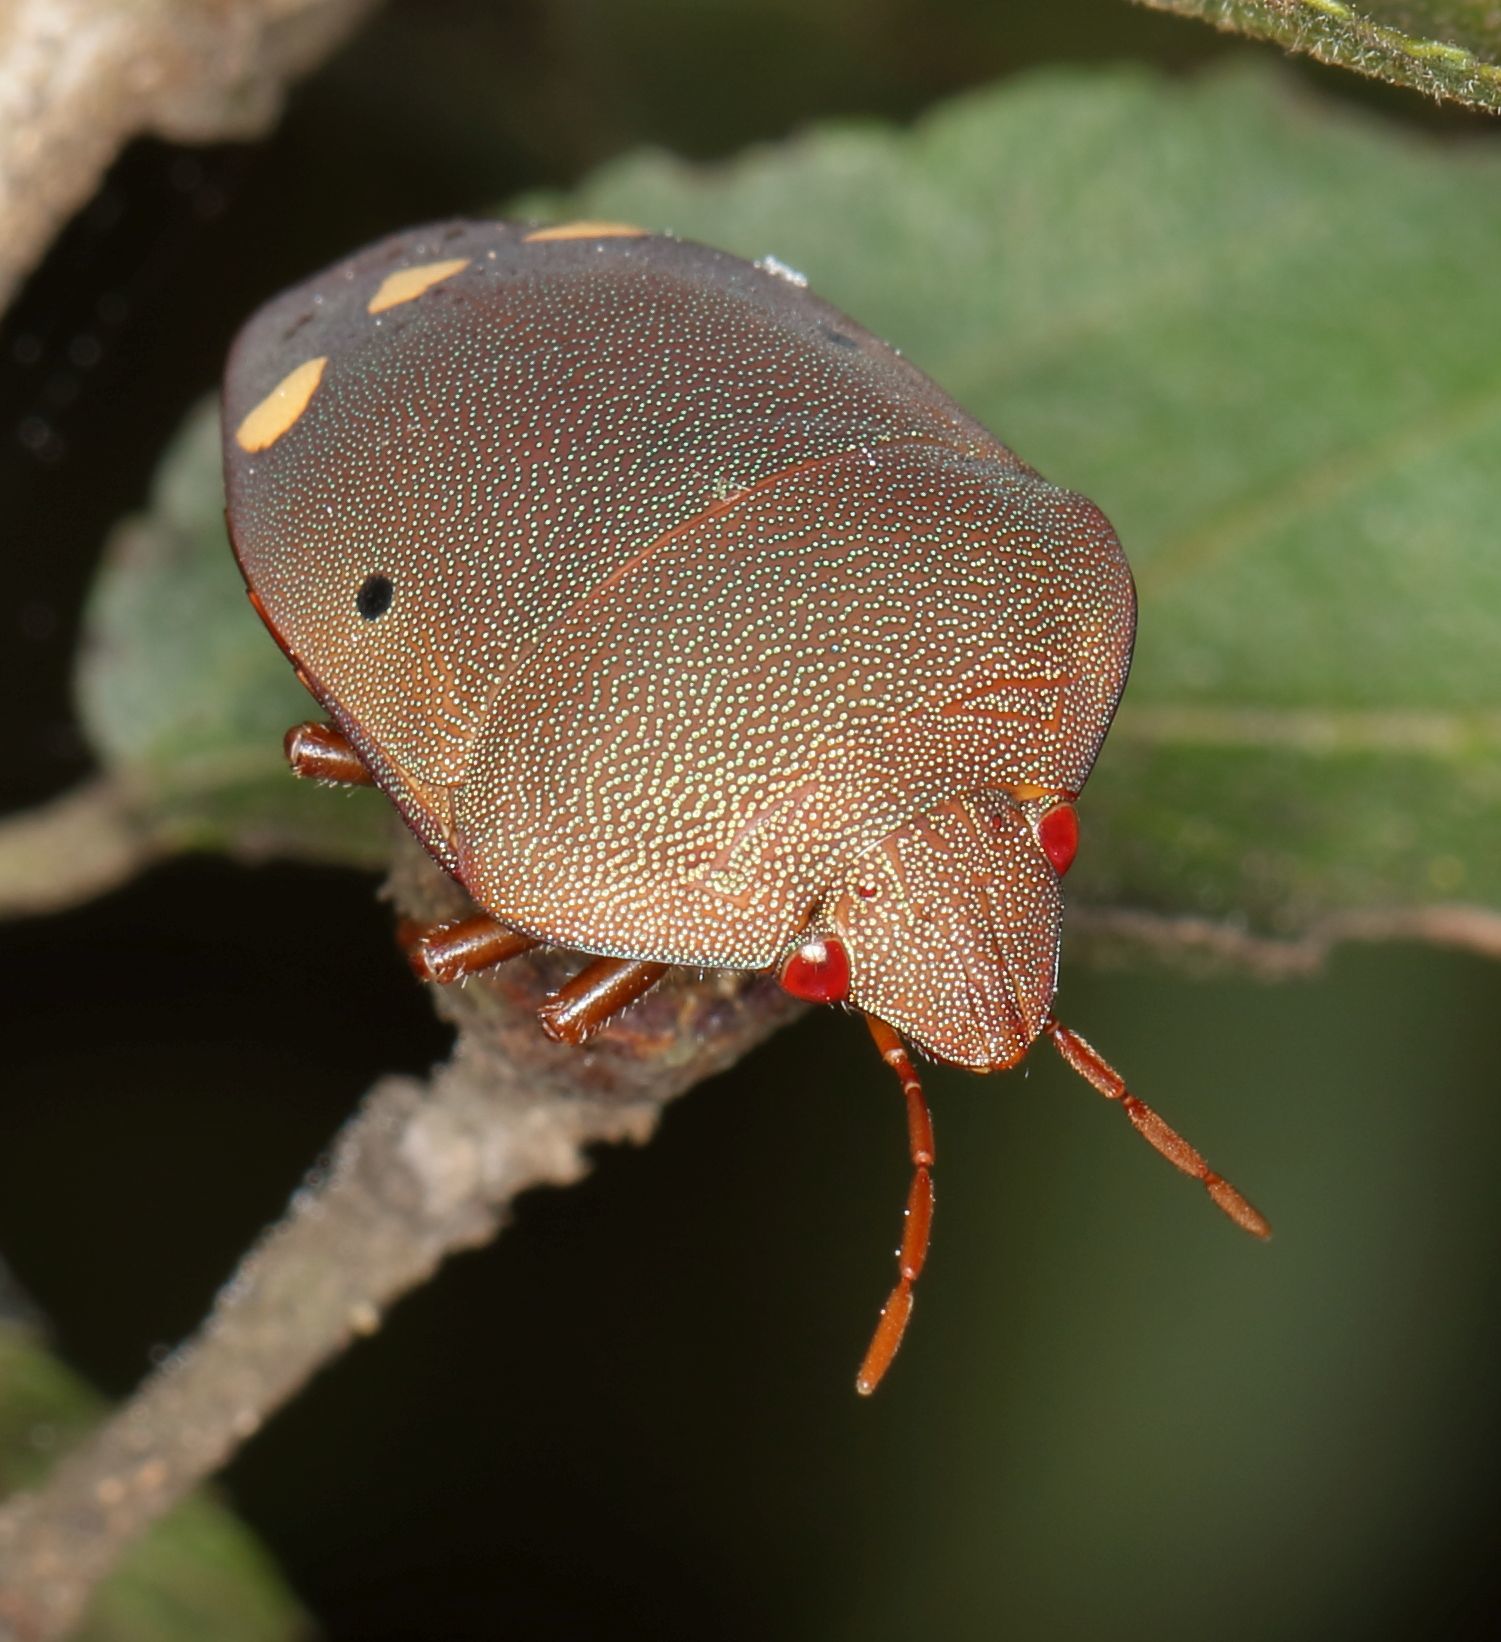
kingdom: Animalia
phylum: Arthropoda
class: Insecta
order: Hemiptera
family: Scutelleridae
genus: Solenosthedium
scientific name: Solenosthedium
